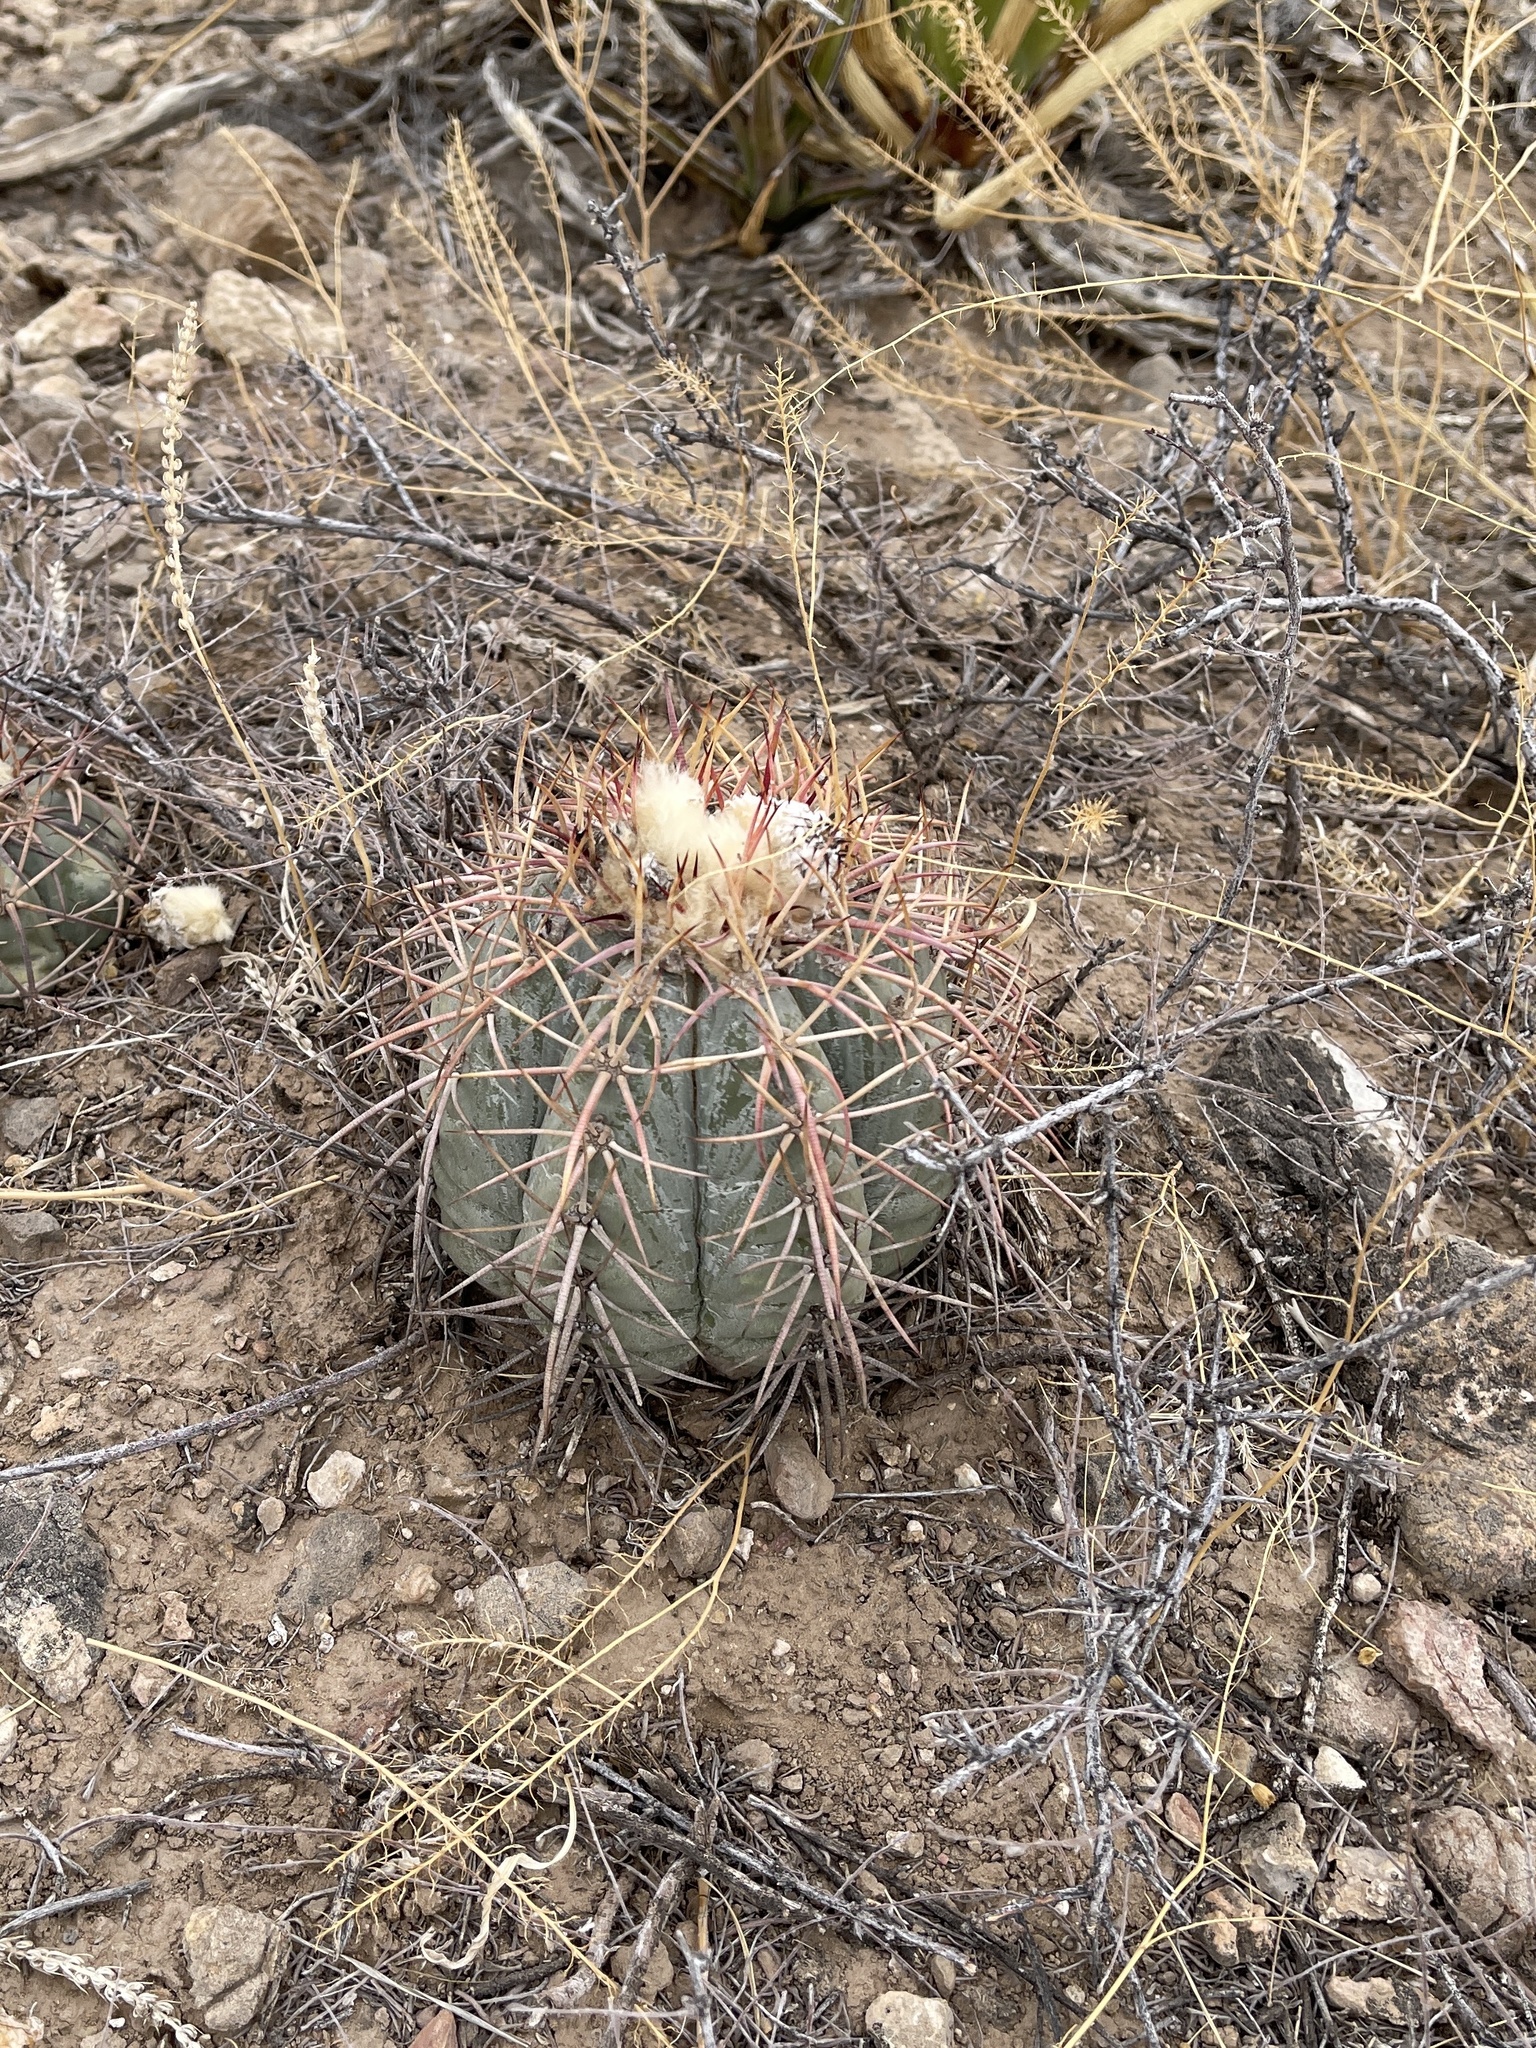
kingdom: Plantae
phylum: Tracheophyta
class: Magnoliopsida
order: Caryophyllales
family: Cactaceae
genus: Echinocactus
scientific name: Echinocactus horizonthalonius
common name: Devilshead
